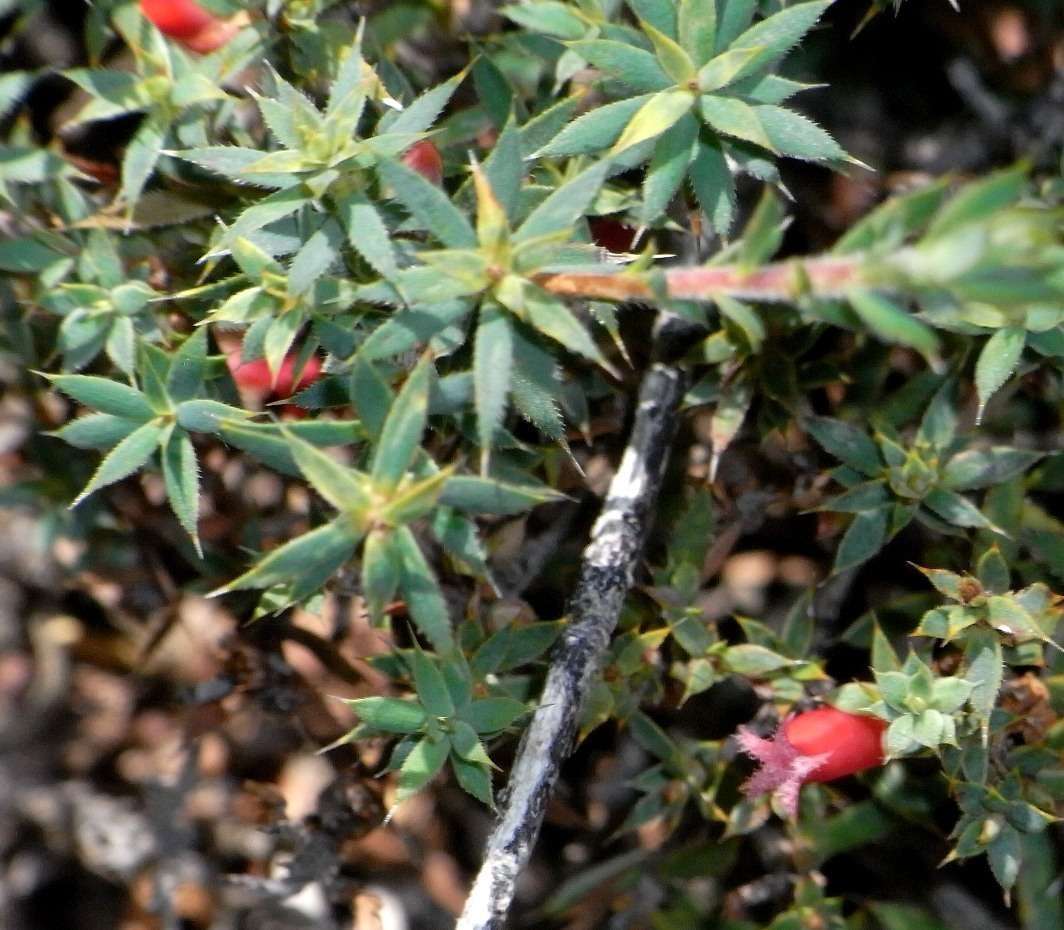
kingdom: Plantae
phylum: Tracheophyta
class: Magnoliopsida
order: Ericales
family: Ericaceae
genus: Styphelia
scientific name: Styphelia humifusa
